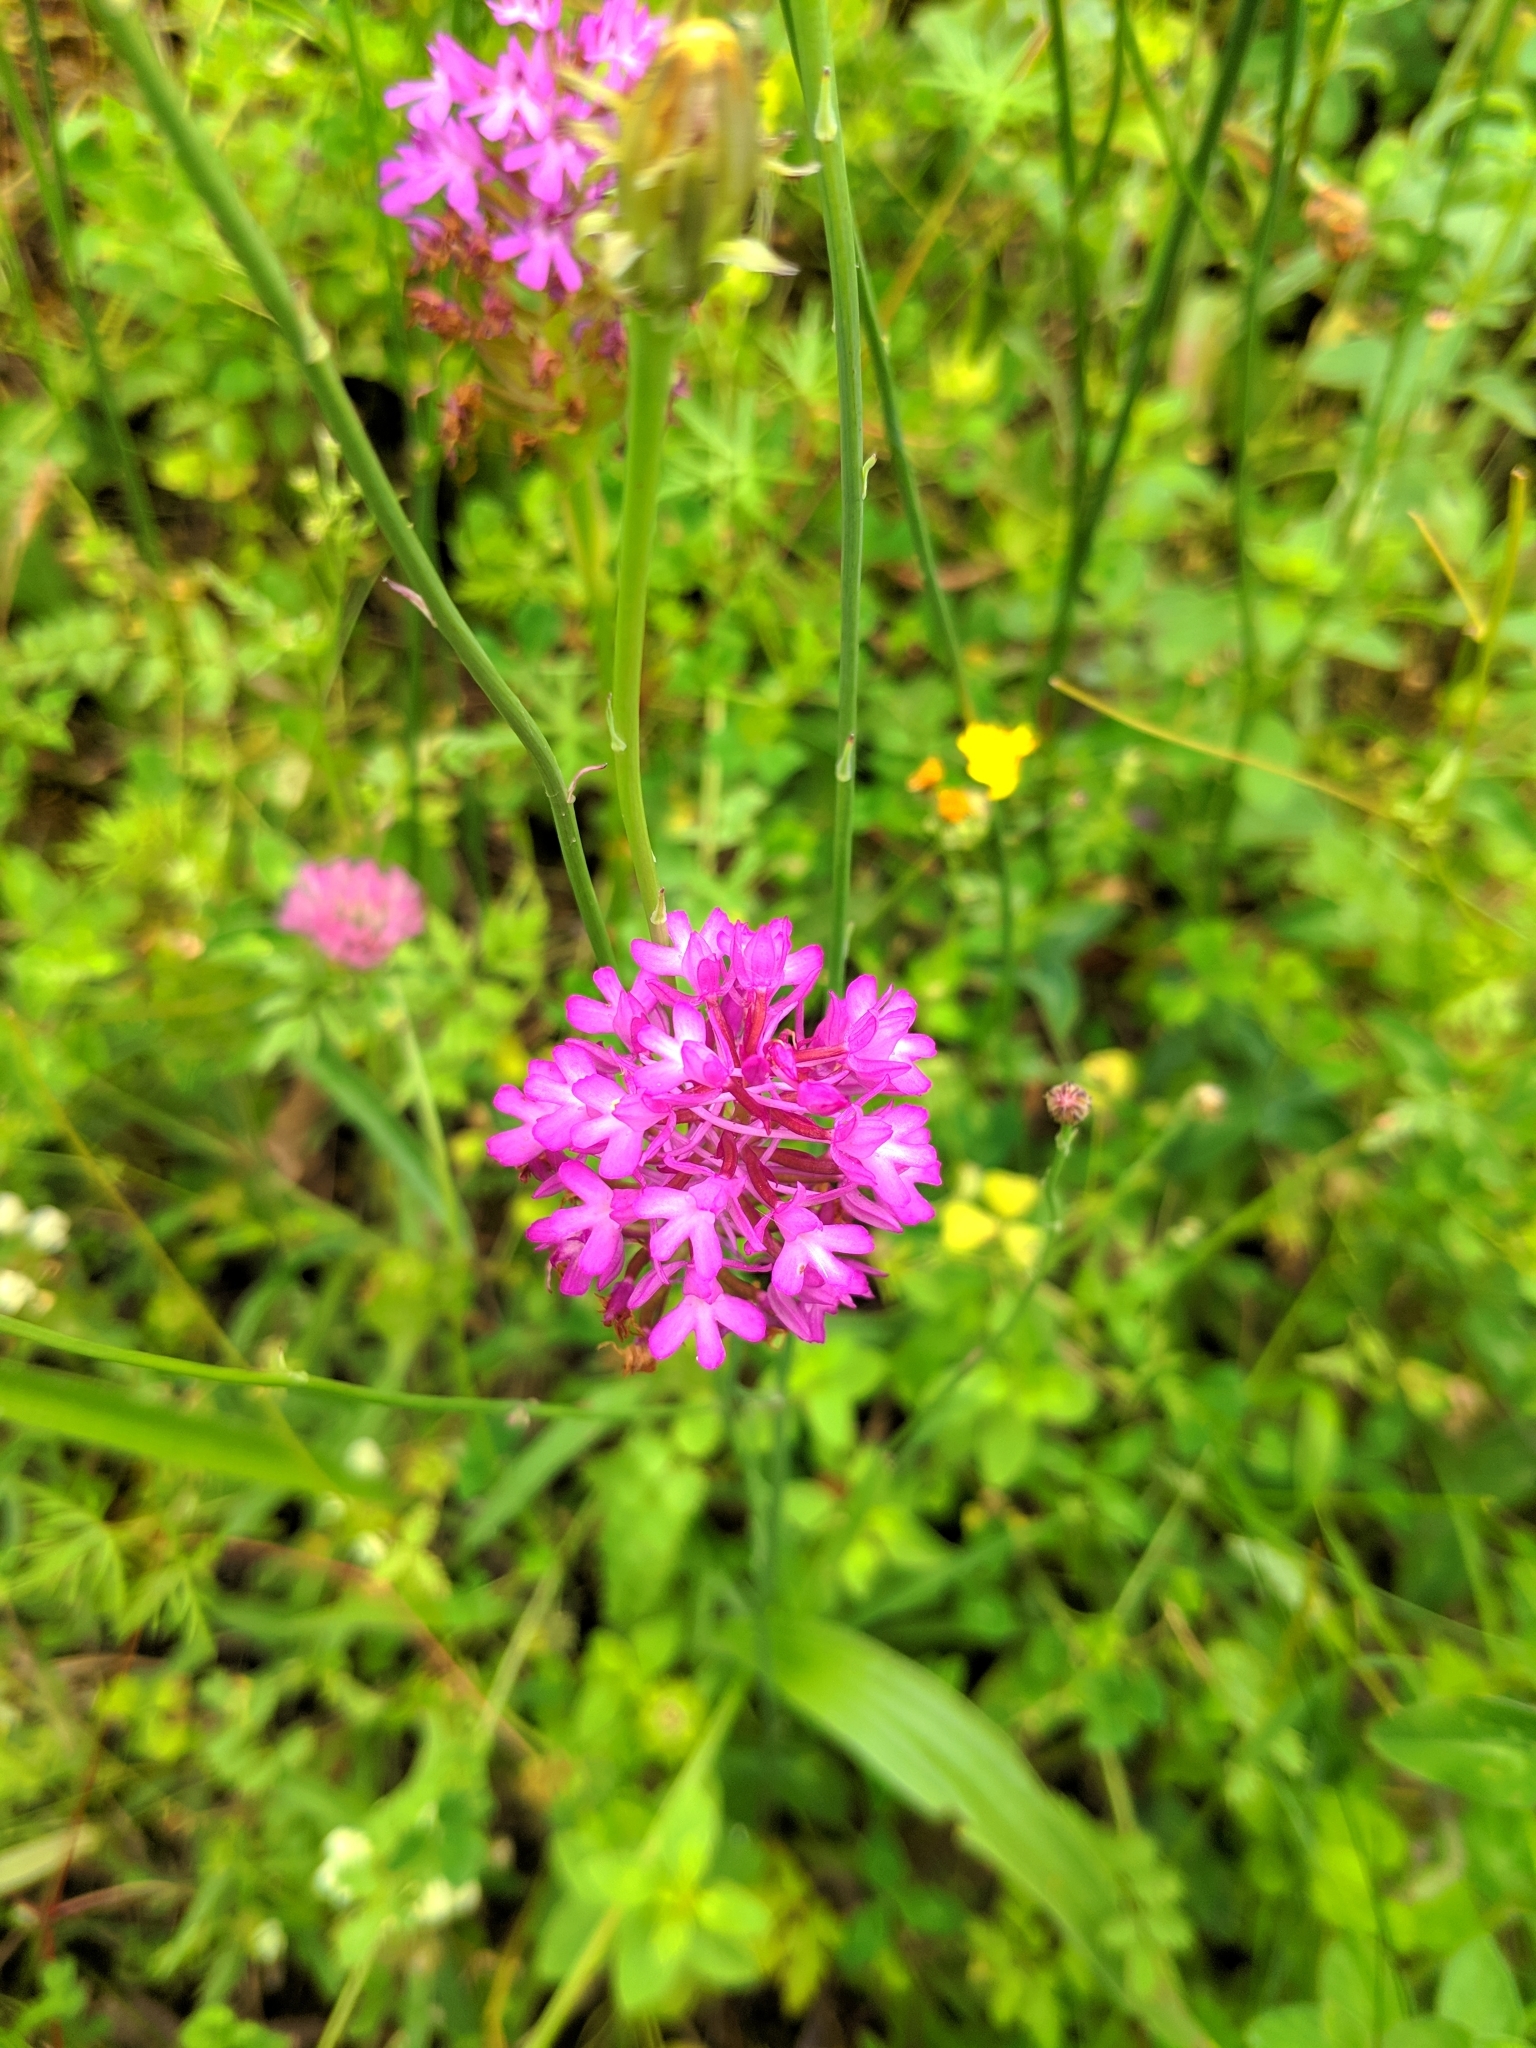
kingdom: Plantae
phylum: Tracheophyta
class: Liliopsida
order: Asparagales
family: Orchidaceae
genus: Anacamptis
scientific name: Anacamptis pyramidalis
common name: Pyramidal orchid
